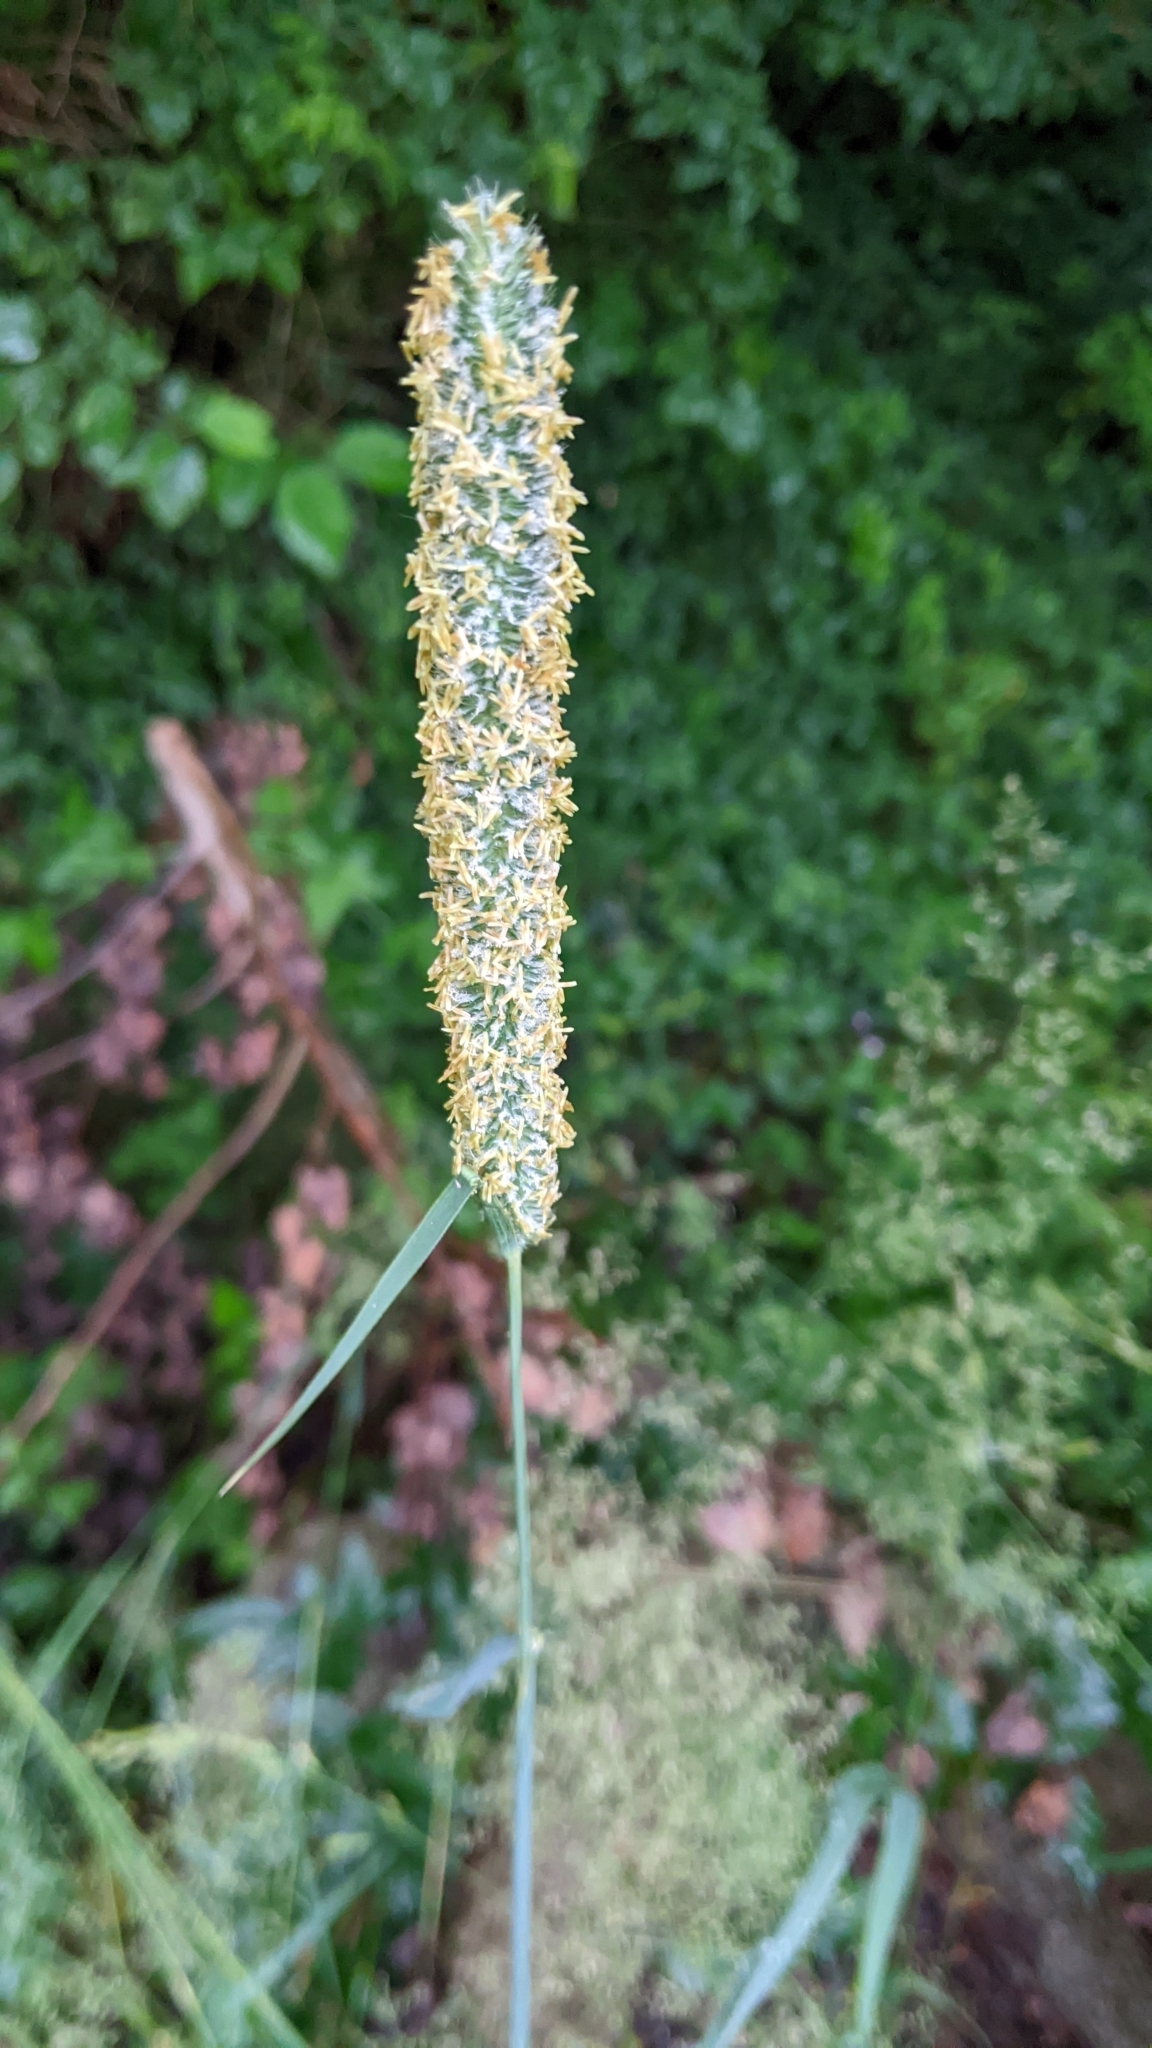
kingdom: Plantae
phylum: Tracheophyta
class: Liliopsida
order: Poales
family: Poaceae
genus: Phleum
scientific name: Phleum pratense
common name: Timothy grass
